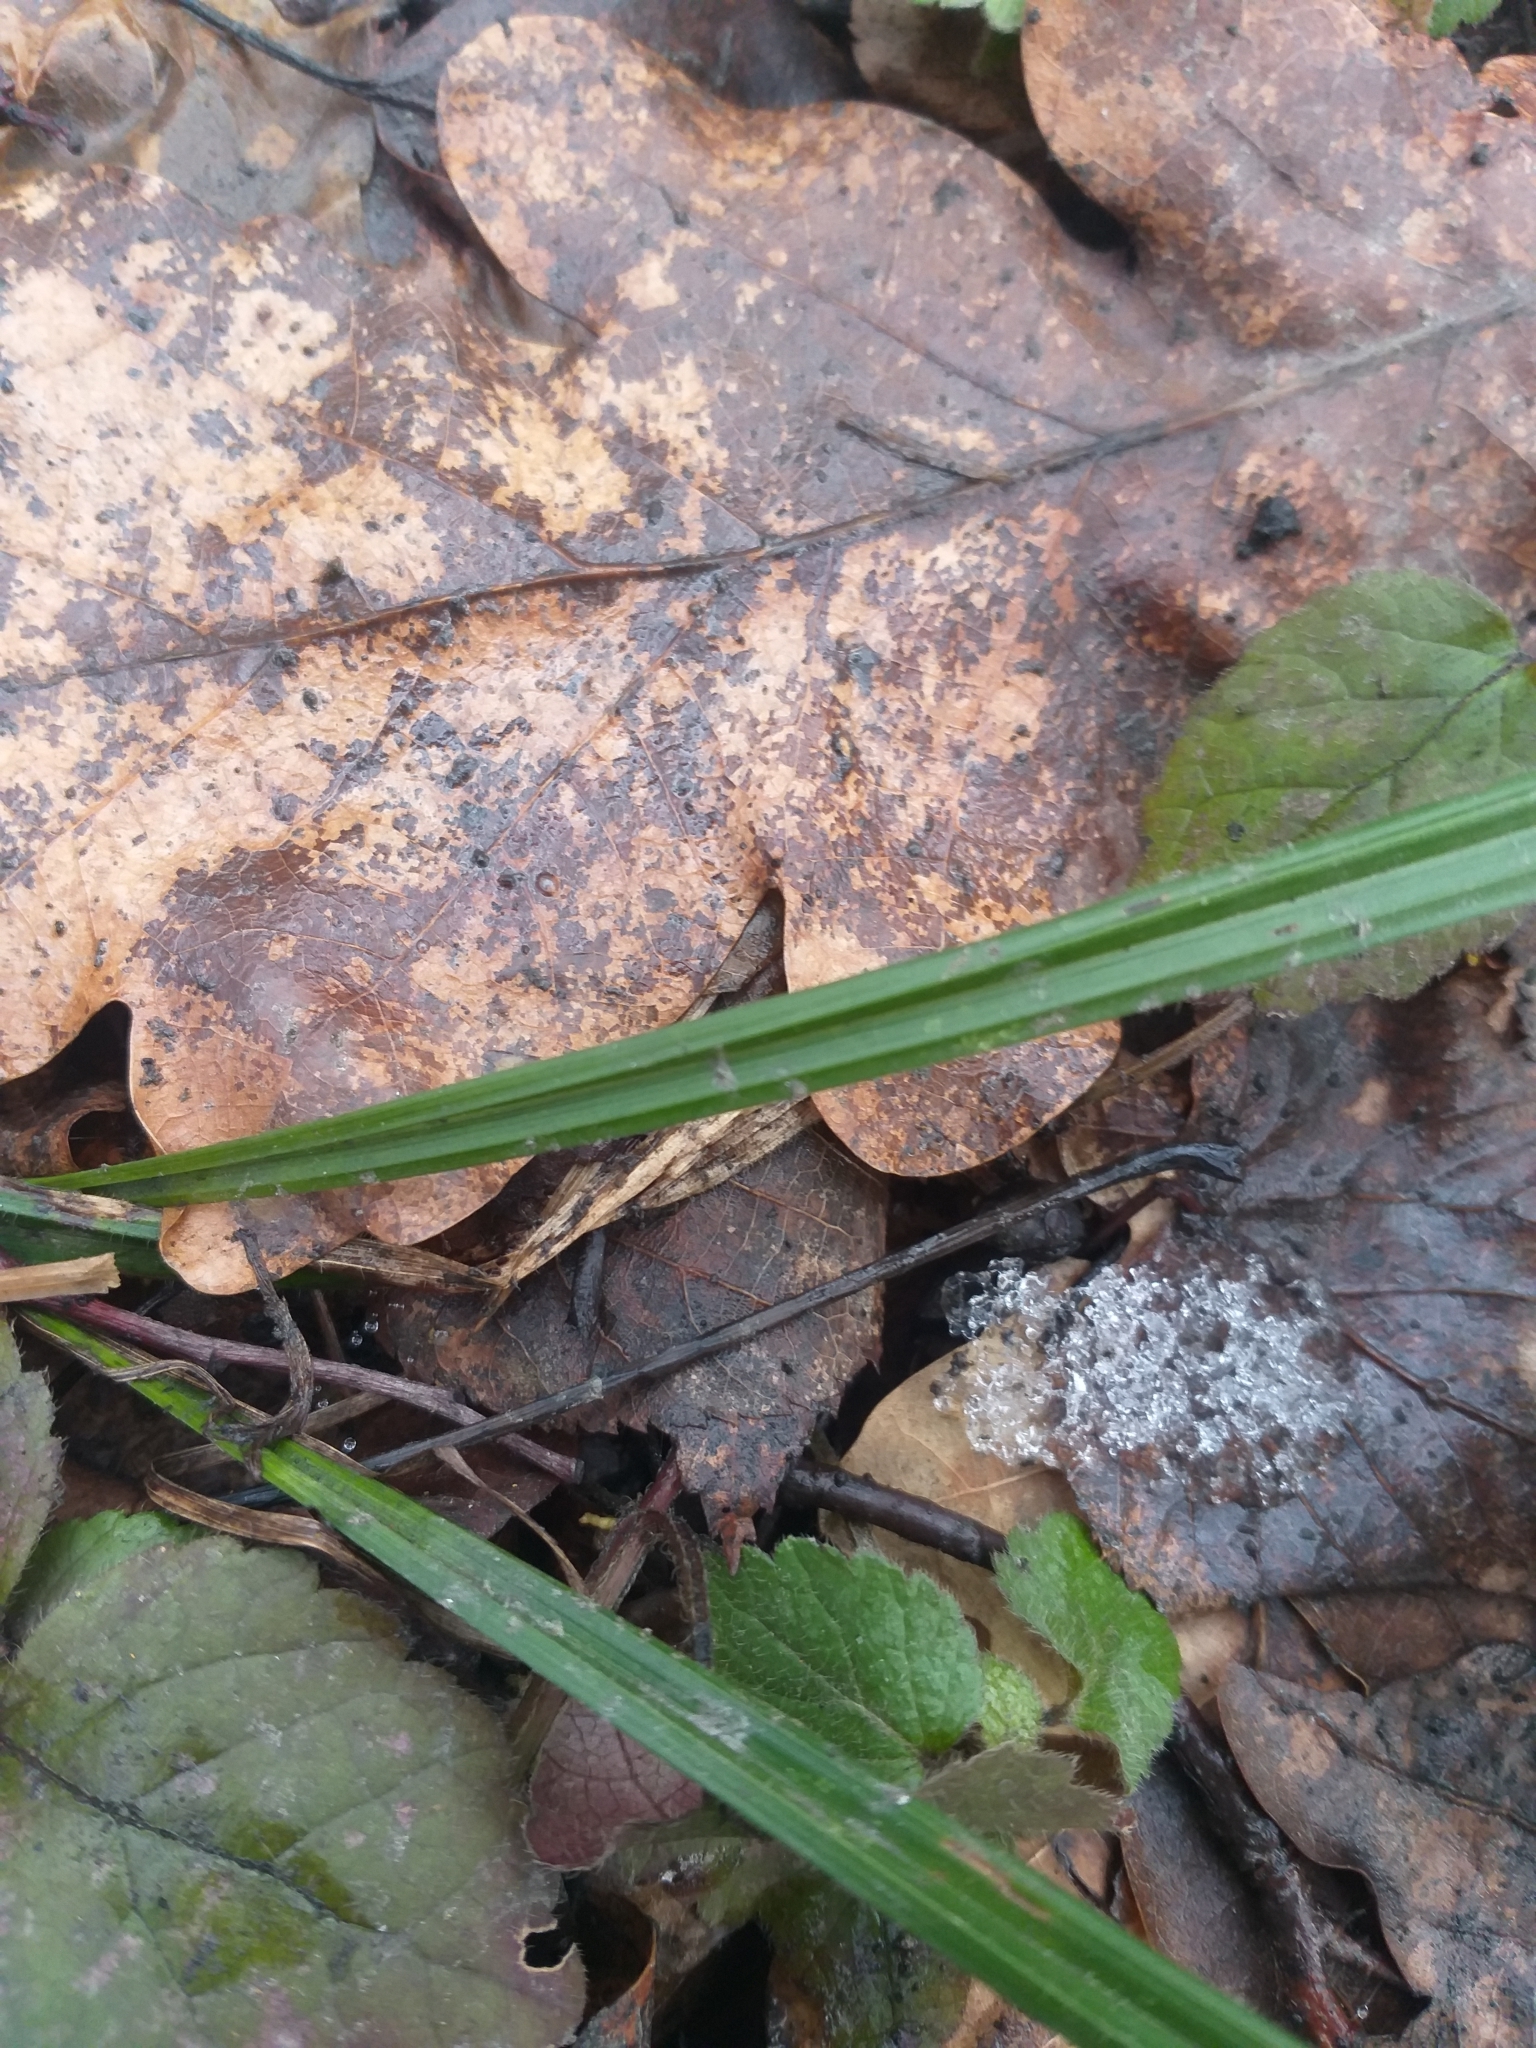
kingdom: Plantae
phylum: Tracheophyta
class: Liliopsida
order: Poales
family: Cyperaceae
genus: Carex
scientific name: Carex pilosa
